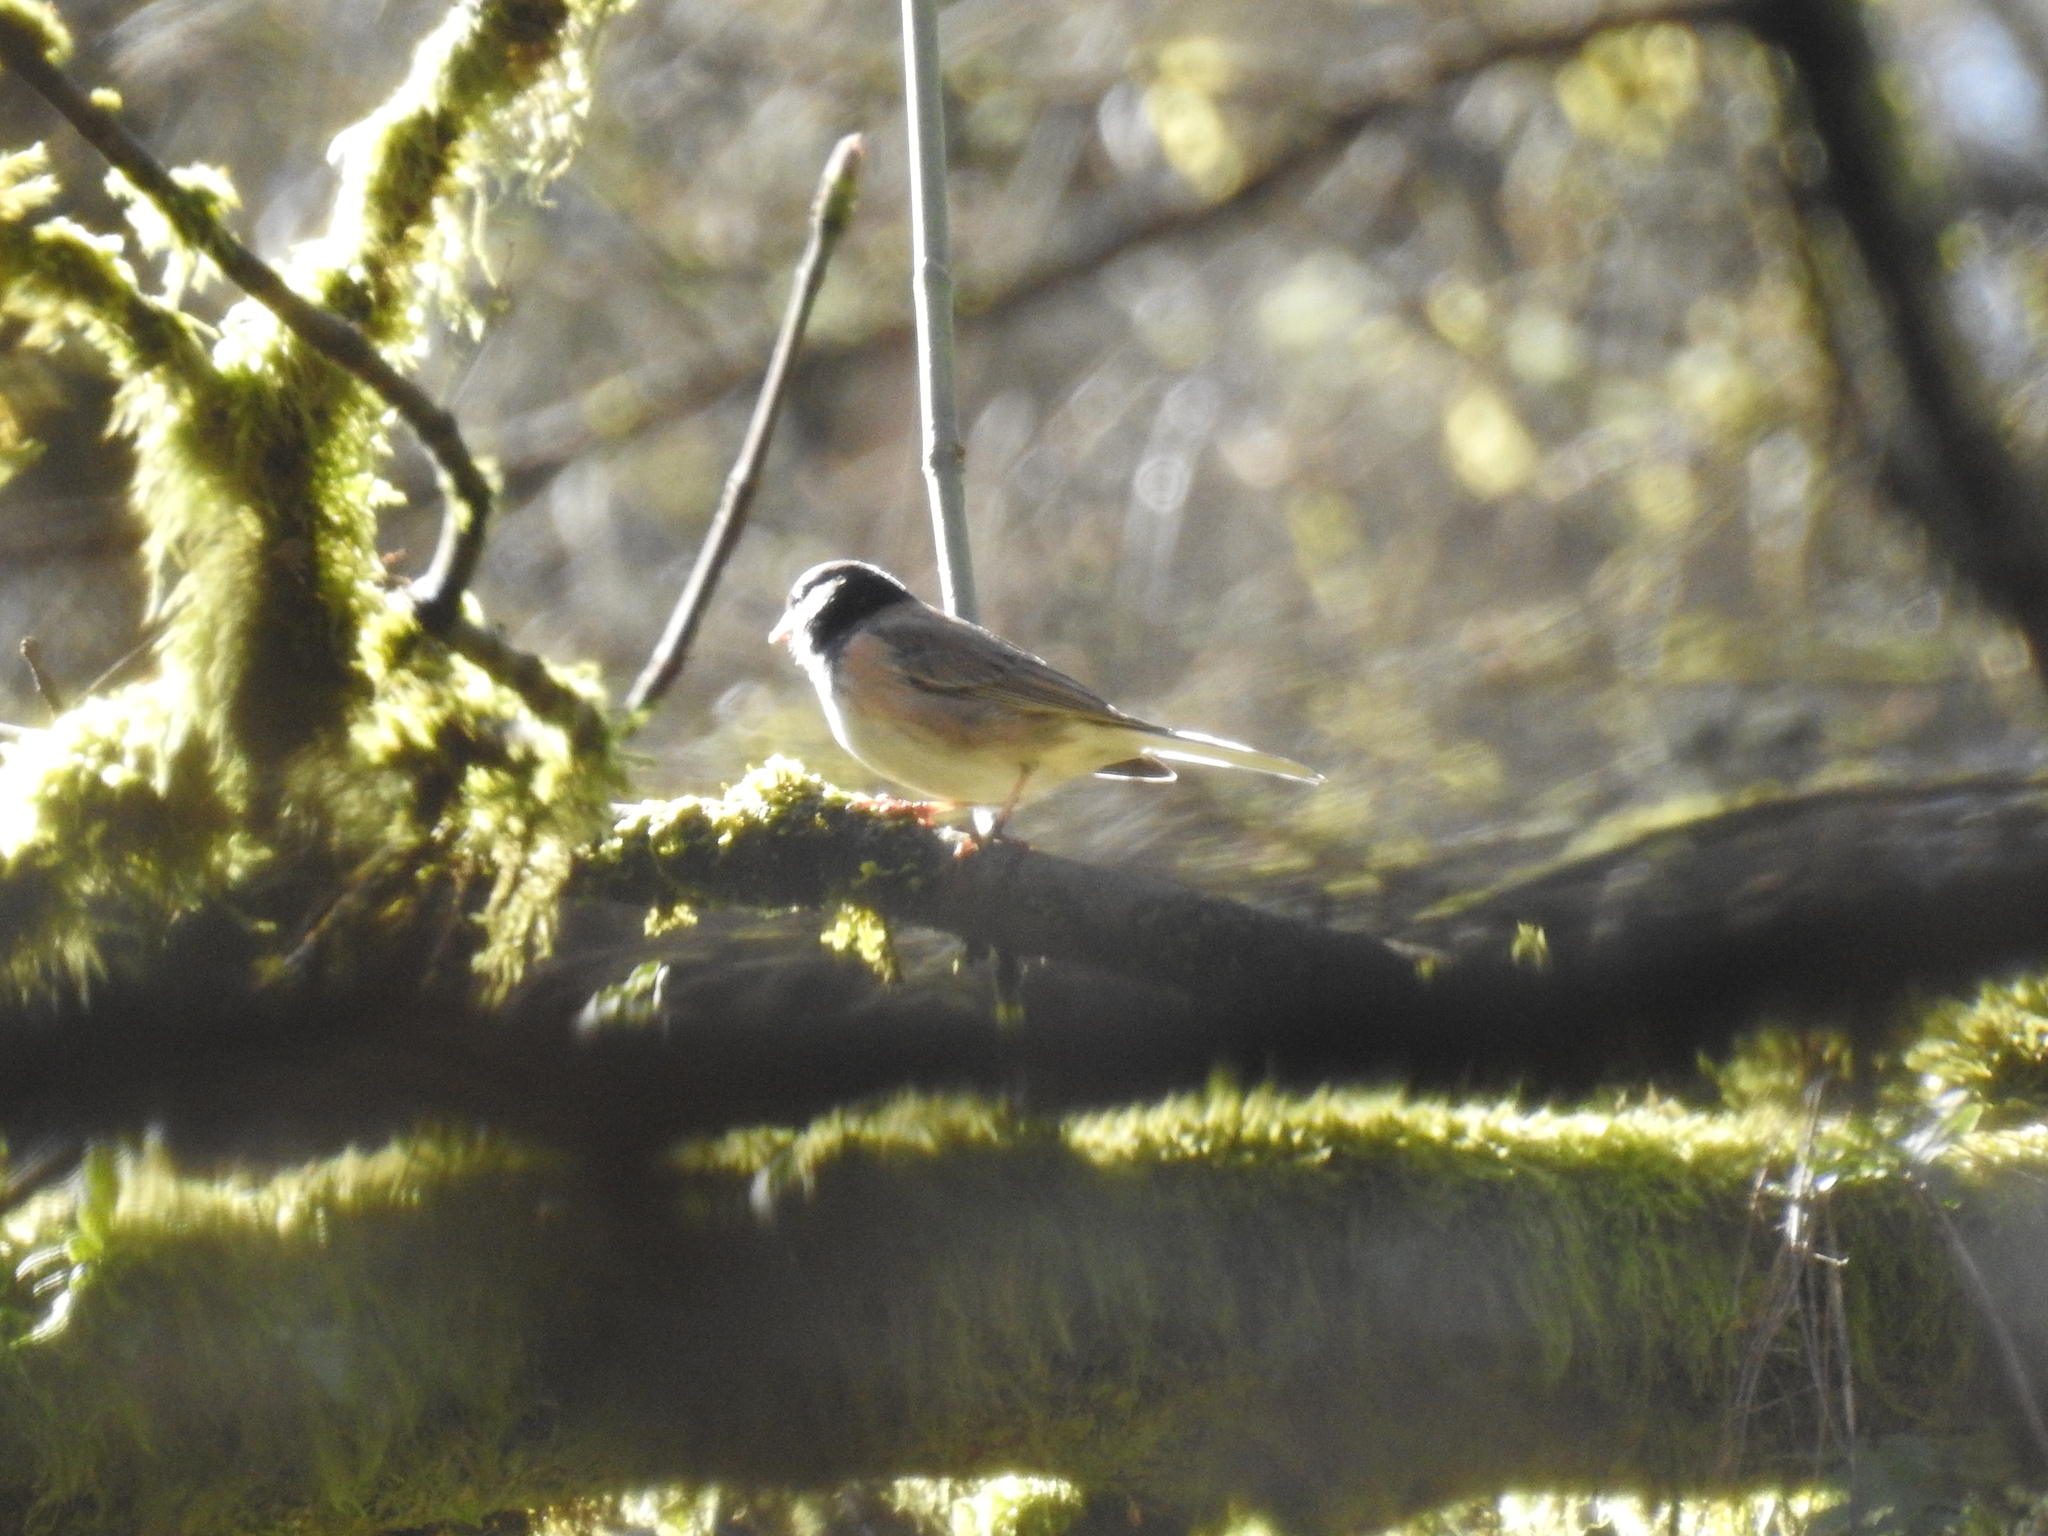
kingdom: Animalia
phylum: Chordata
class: Aves
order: Passeriformes
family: Passerellidae
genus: Junco
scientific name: Junco hyemalis
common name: Dark-eyed junco
